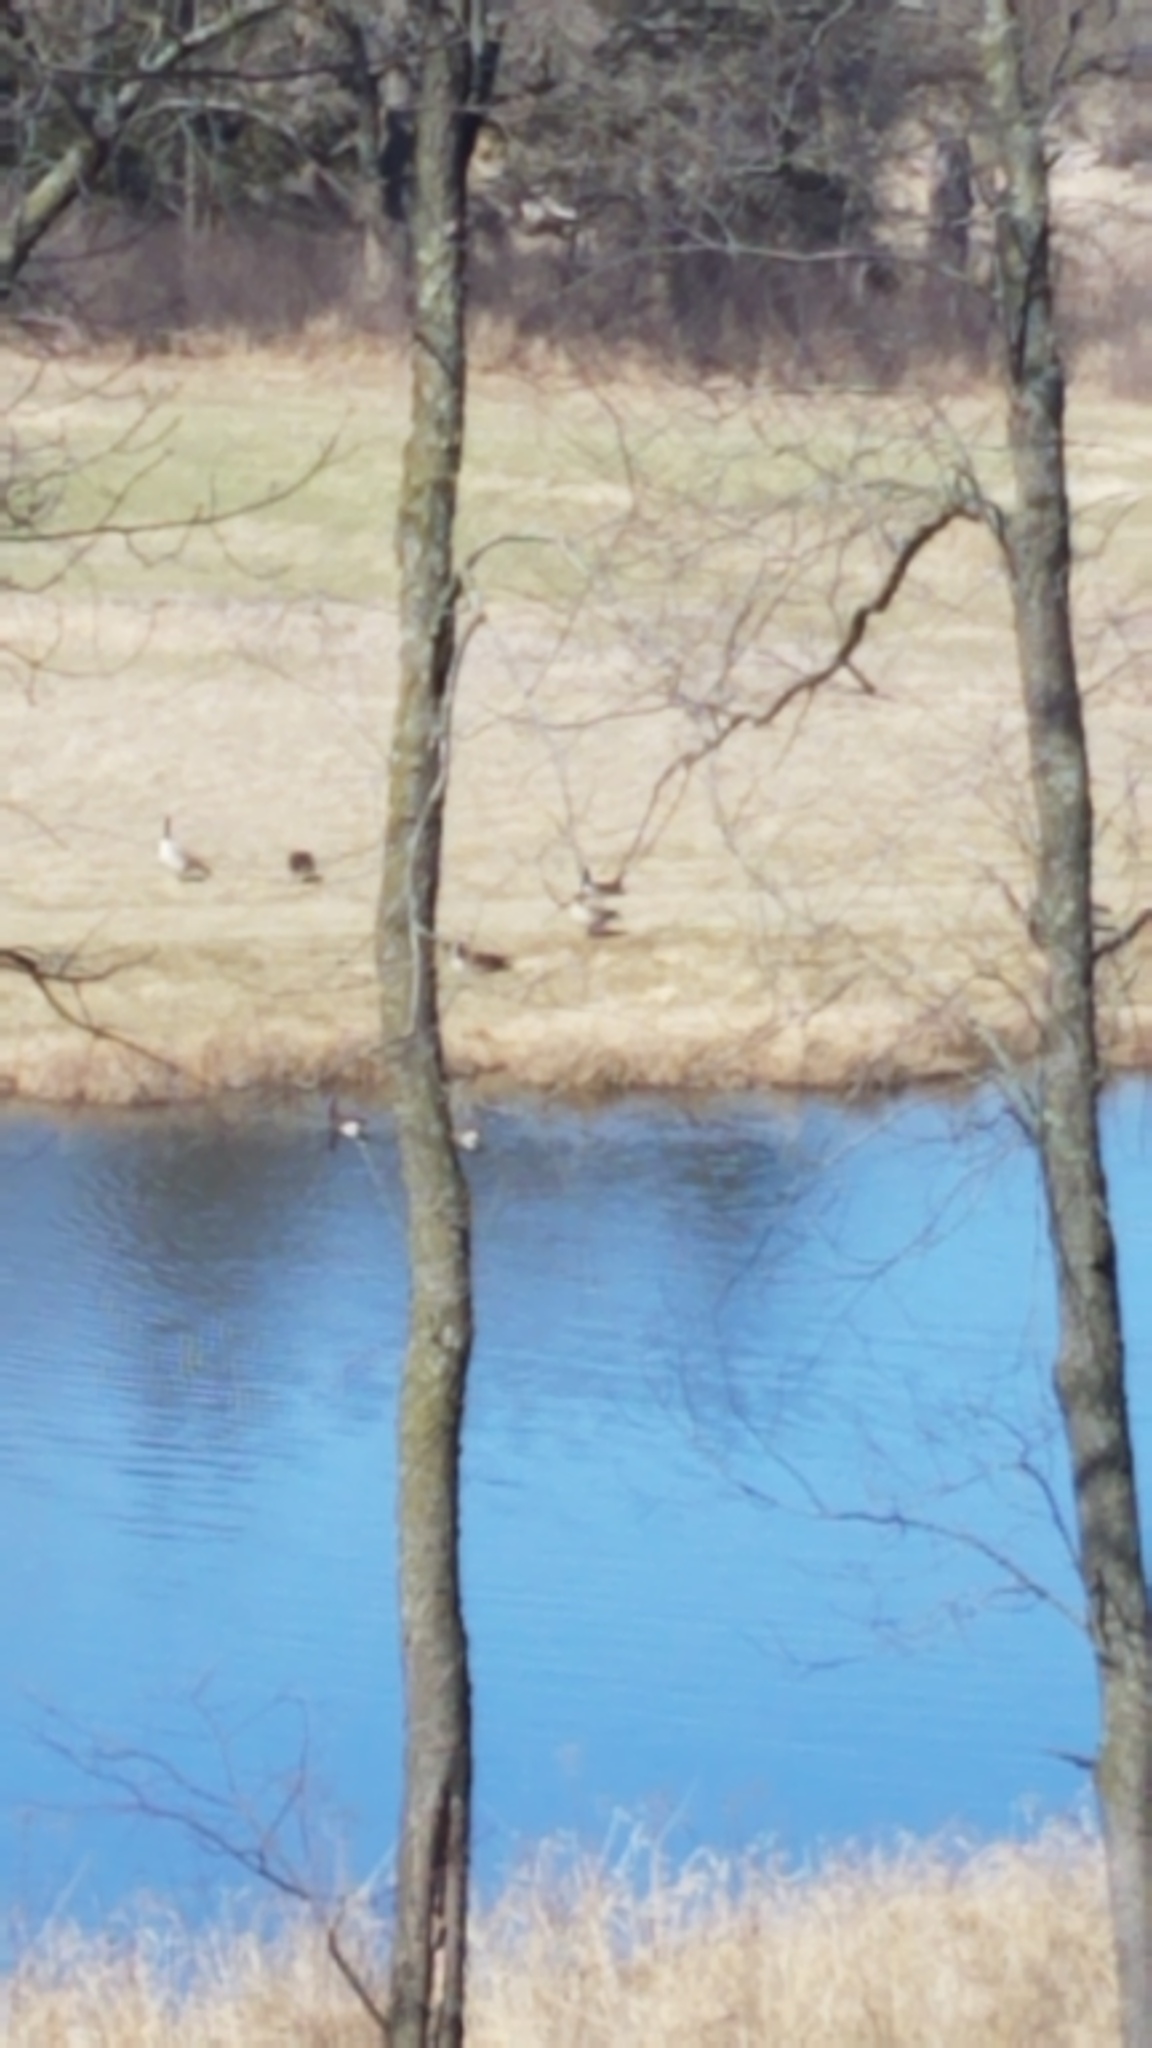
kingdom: Animalia
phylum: Chordata
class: Aves
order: Anseriformes
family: Anatidae
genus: Branta
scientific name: Branta canadensis
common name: Canada goose
